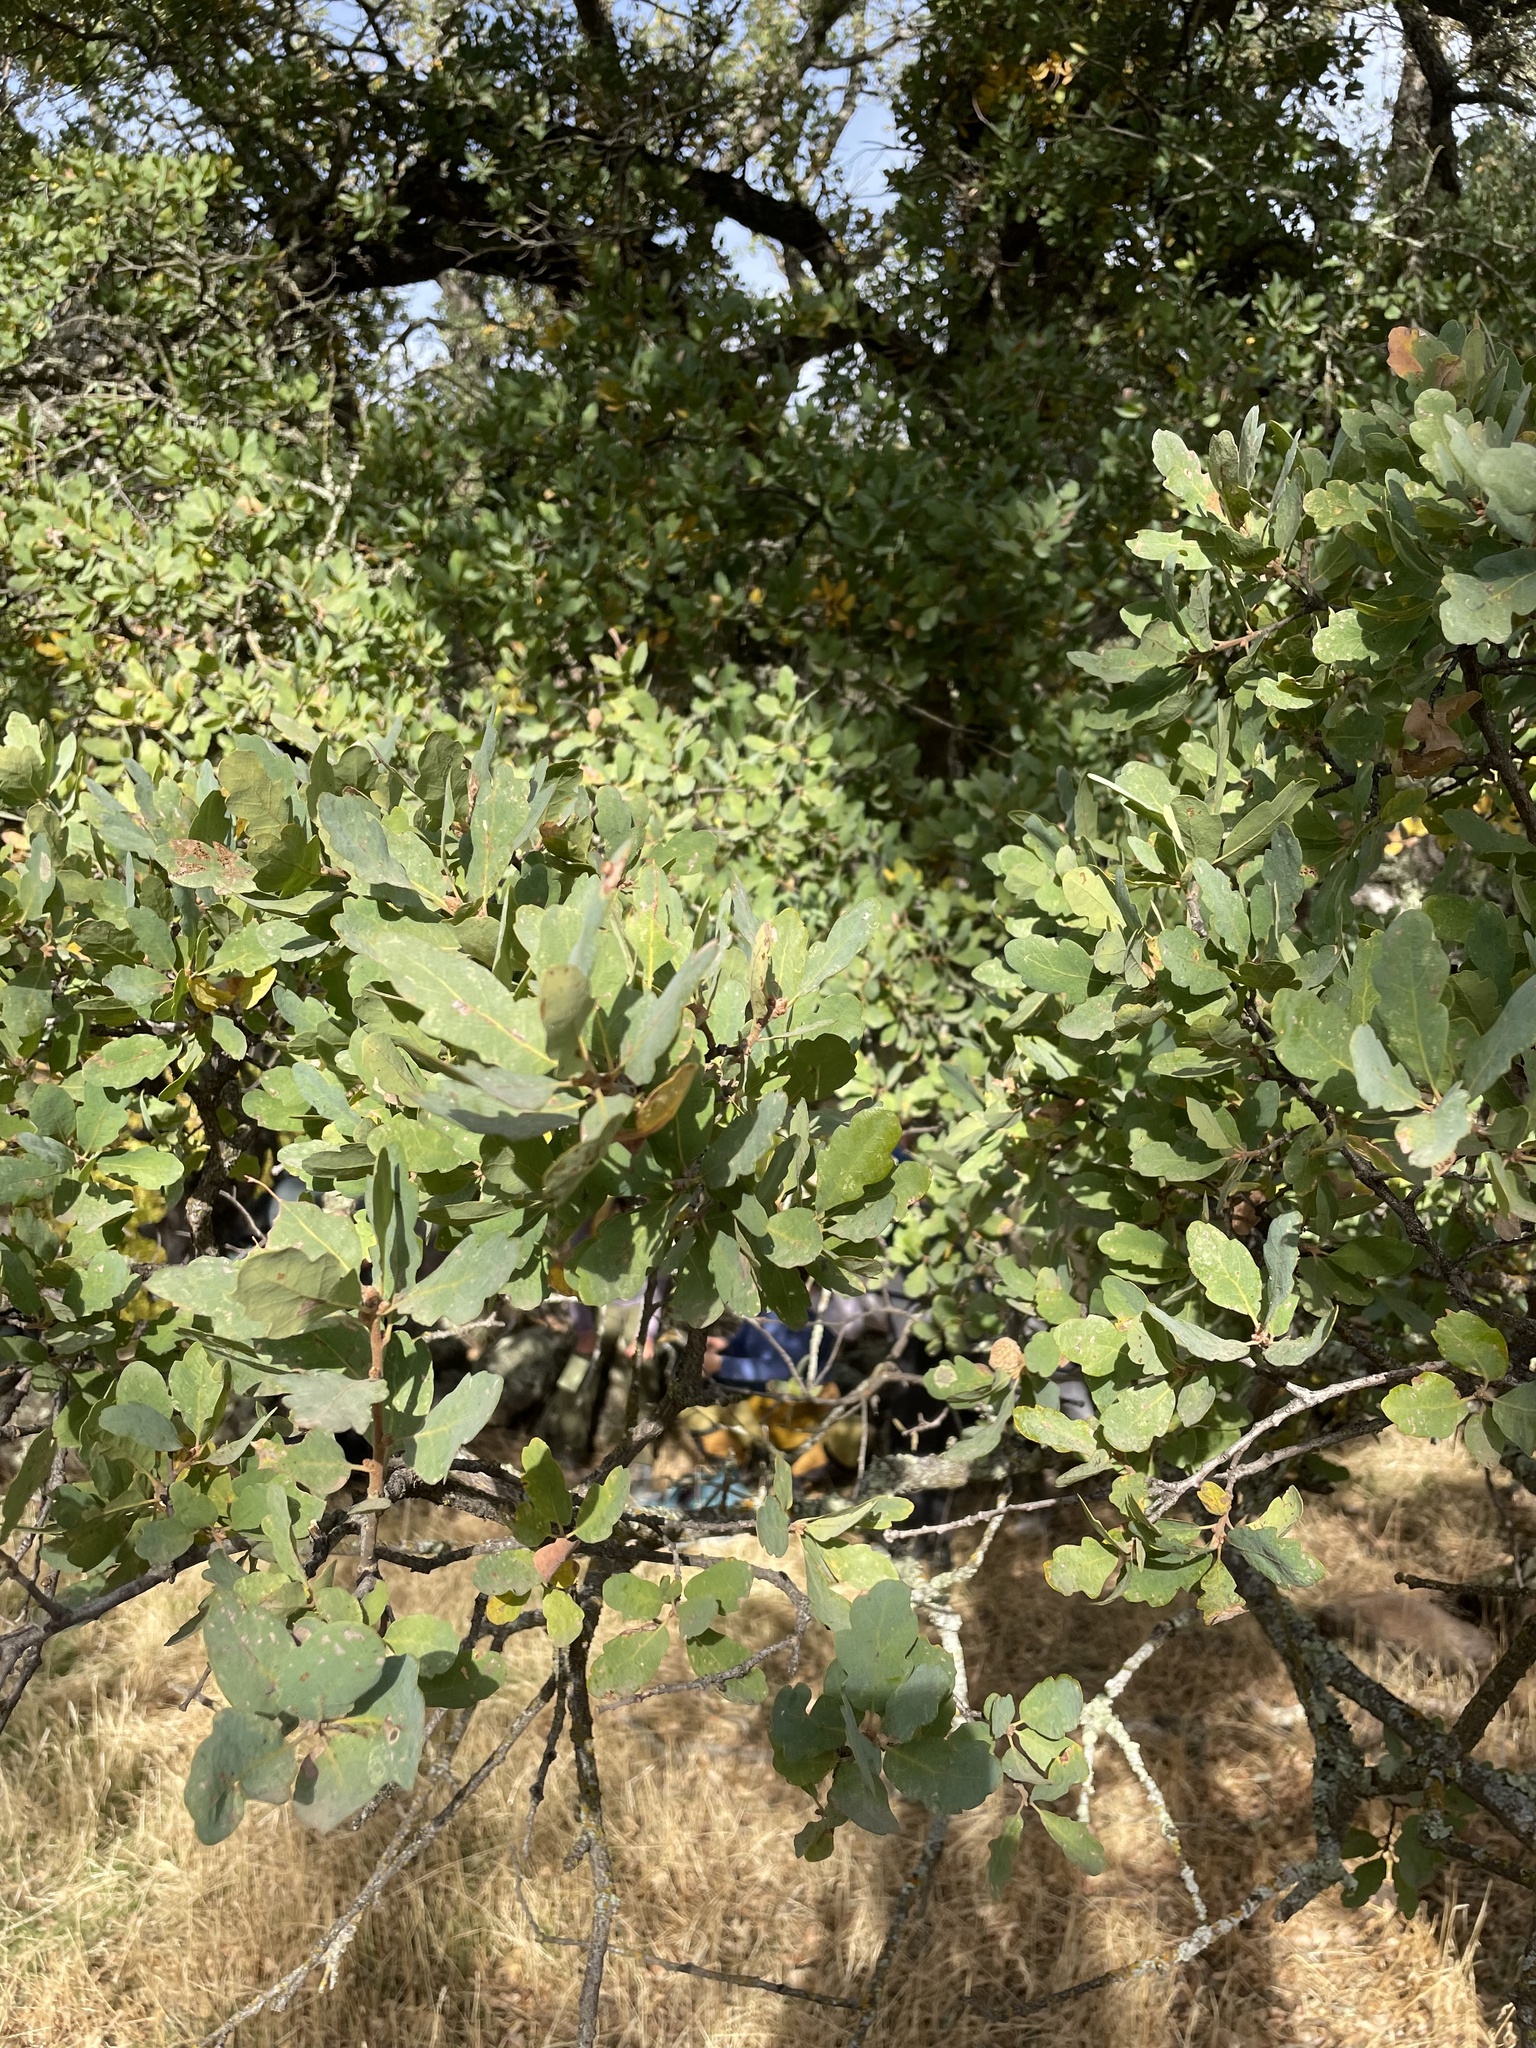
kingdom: Plantae
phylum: Tracheophyta
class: Magnoliopsida
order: Fagales
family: Fagaceae
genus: Quercus
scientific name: Quercus douglasii
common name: Blue oak
